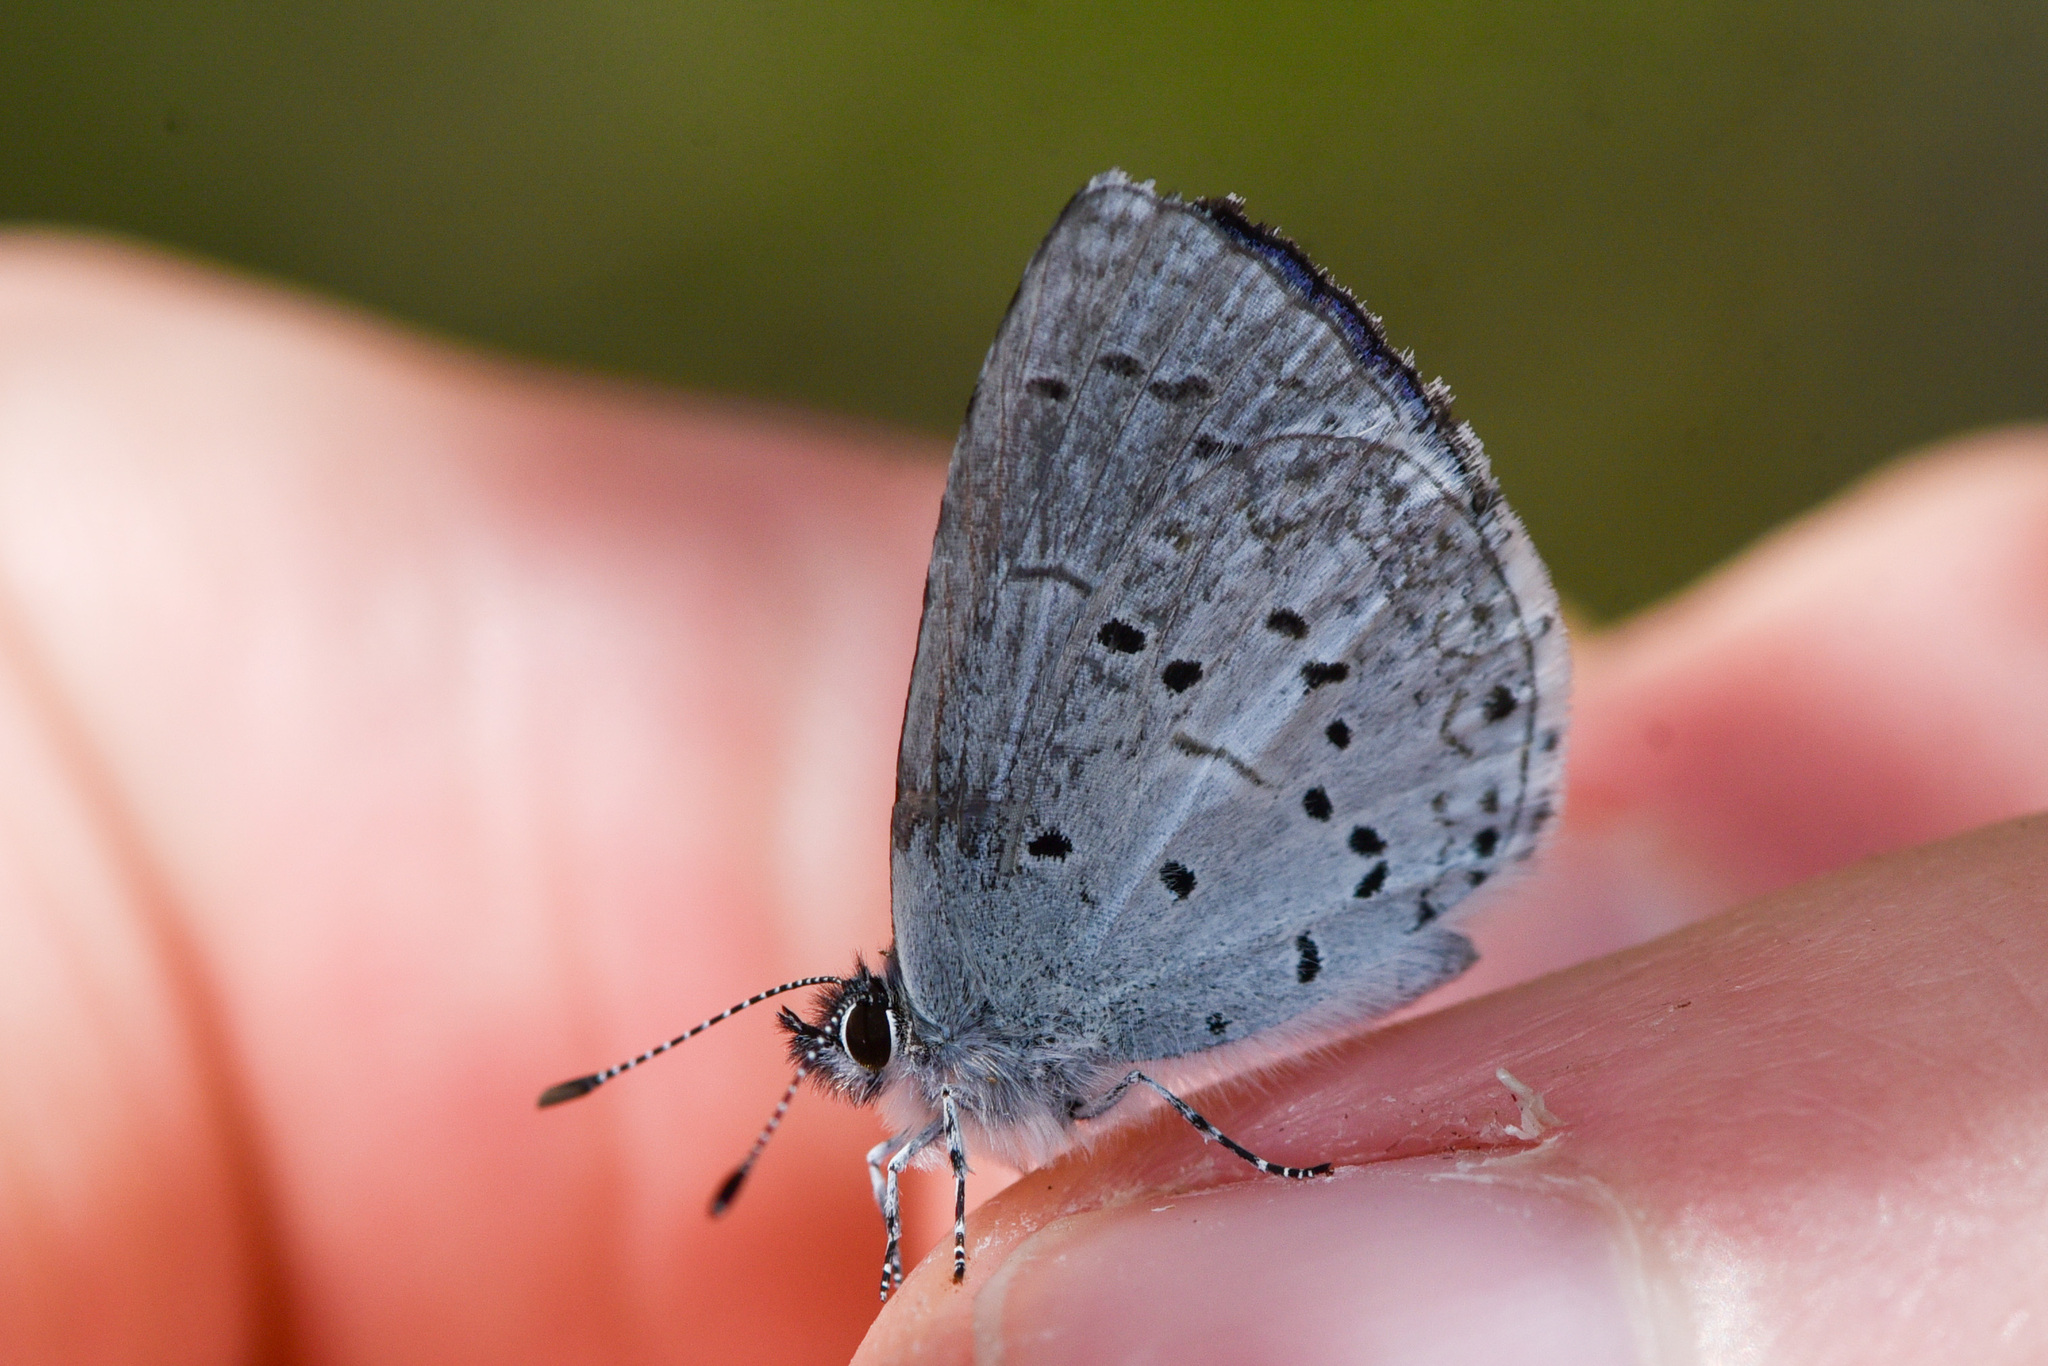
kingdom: Animalia
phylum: Arthropoda
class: Insecta
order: Lepidoptera
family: Lycaenidae
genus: Celastrina
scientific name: Celastrina ladon
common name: Spring azure
